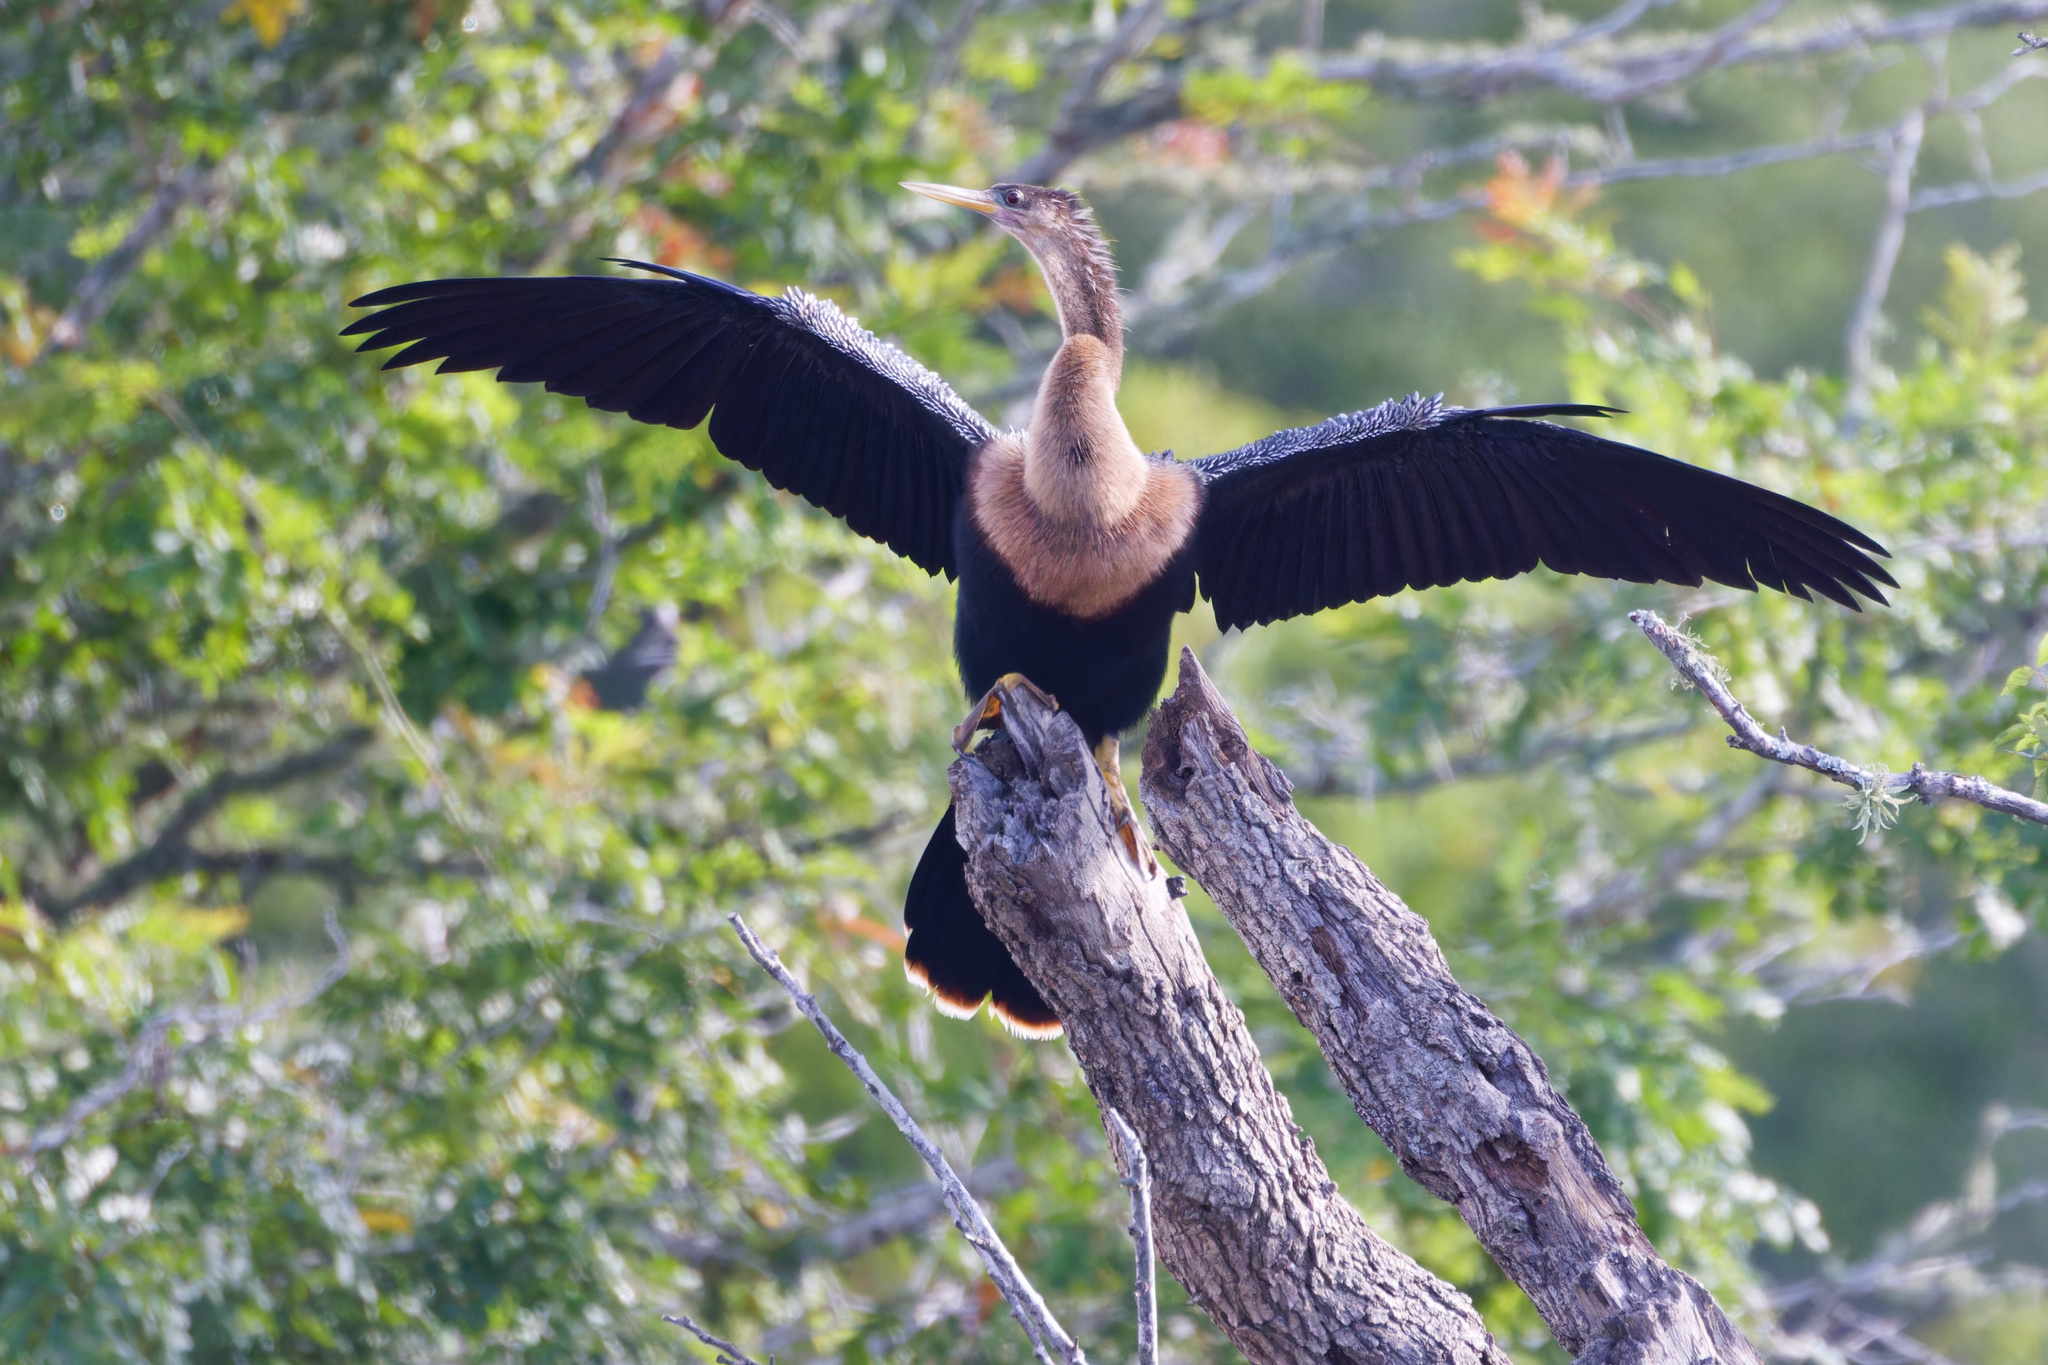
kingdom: Animalia
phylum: Chordata
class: Aves
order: Suliformes
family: Anhingidae
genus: Anhinga
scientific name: Anhinga anhinga
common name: Anhinga
